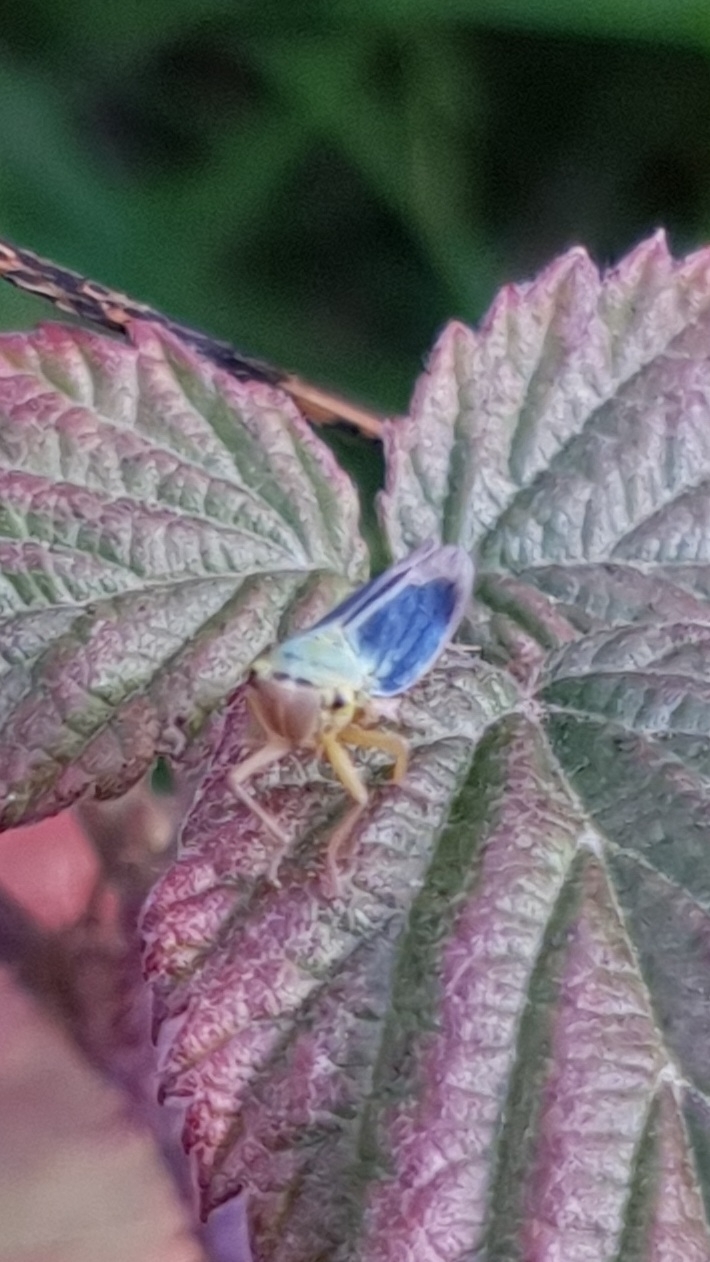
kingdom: Animalia
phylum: Arthropoda
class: Insecta
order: Hemiptera
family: Cicadellidae
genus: Cicadella
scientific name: Cicadella viridis
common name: Leafhopper
